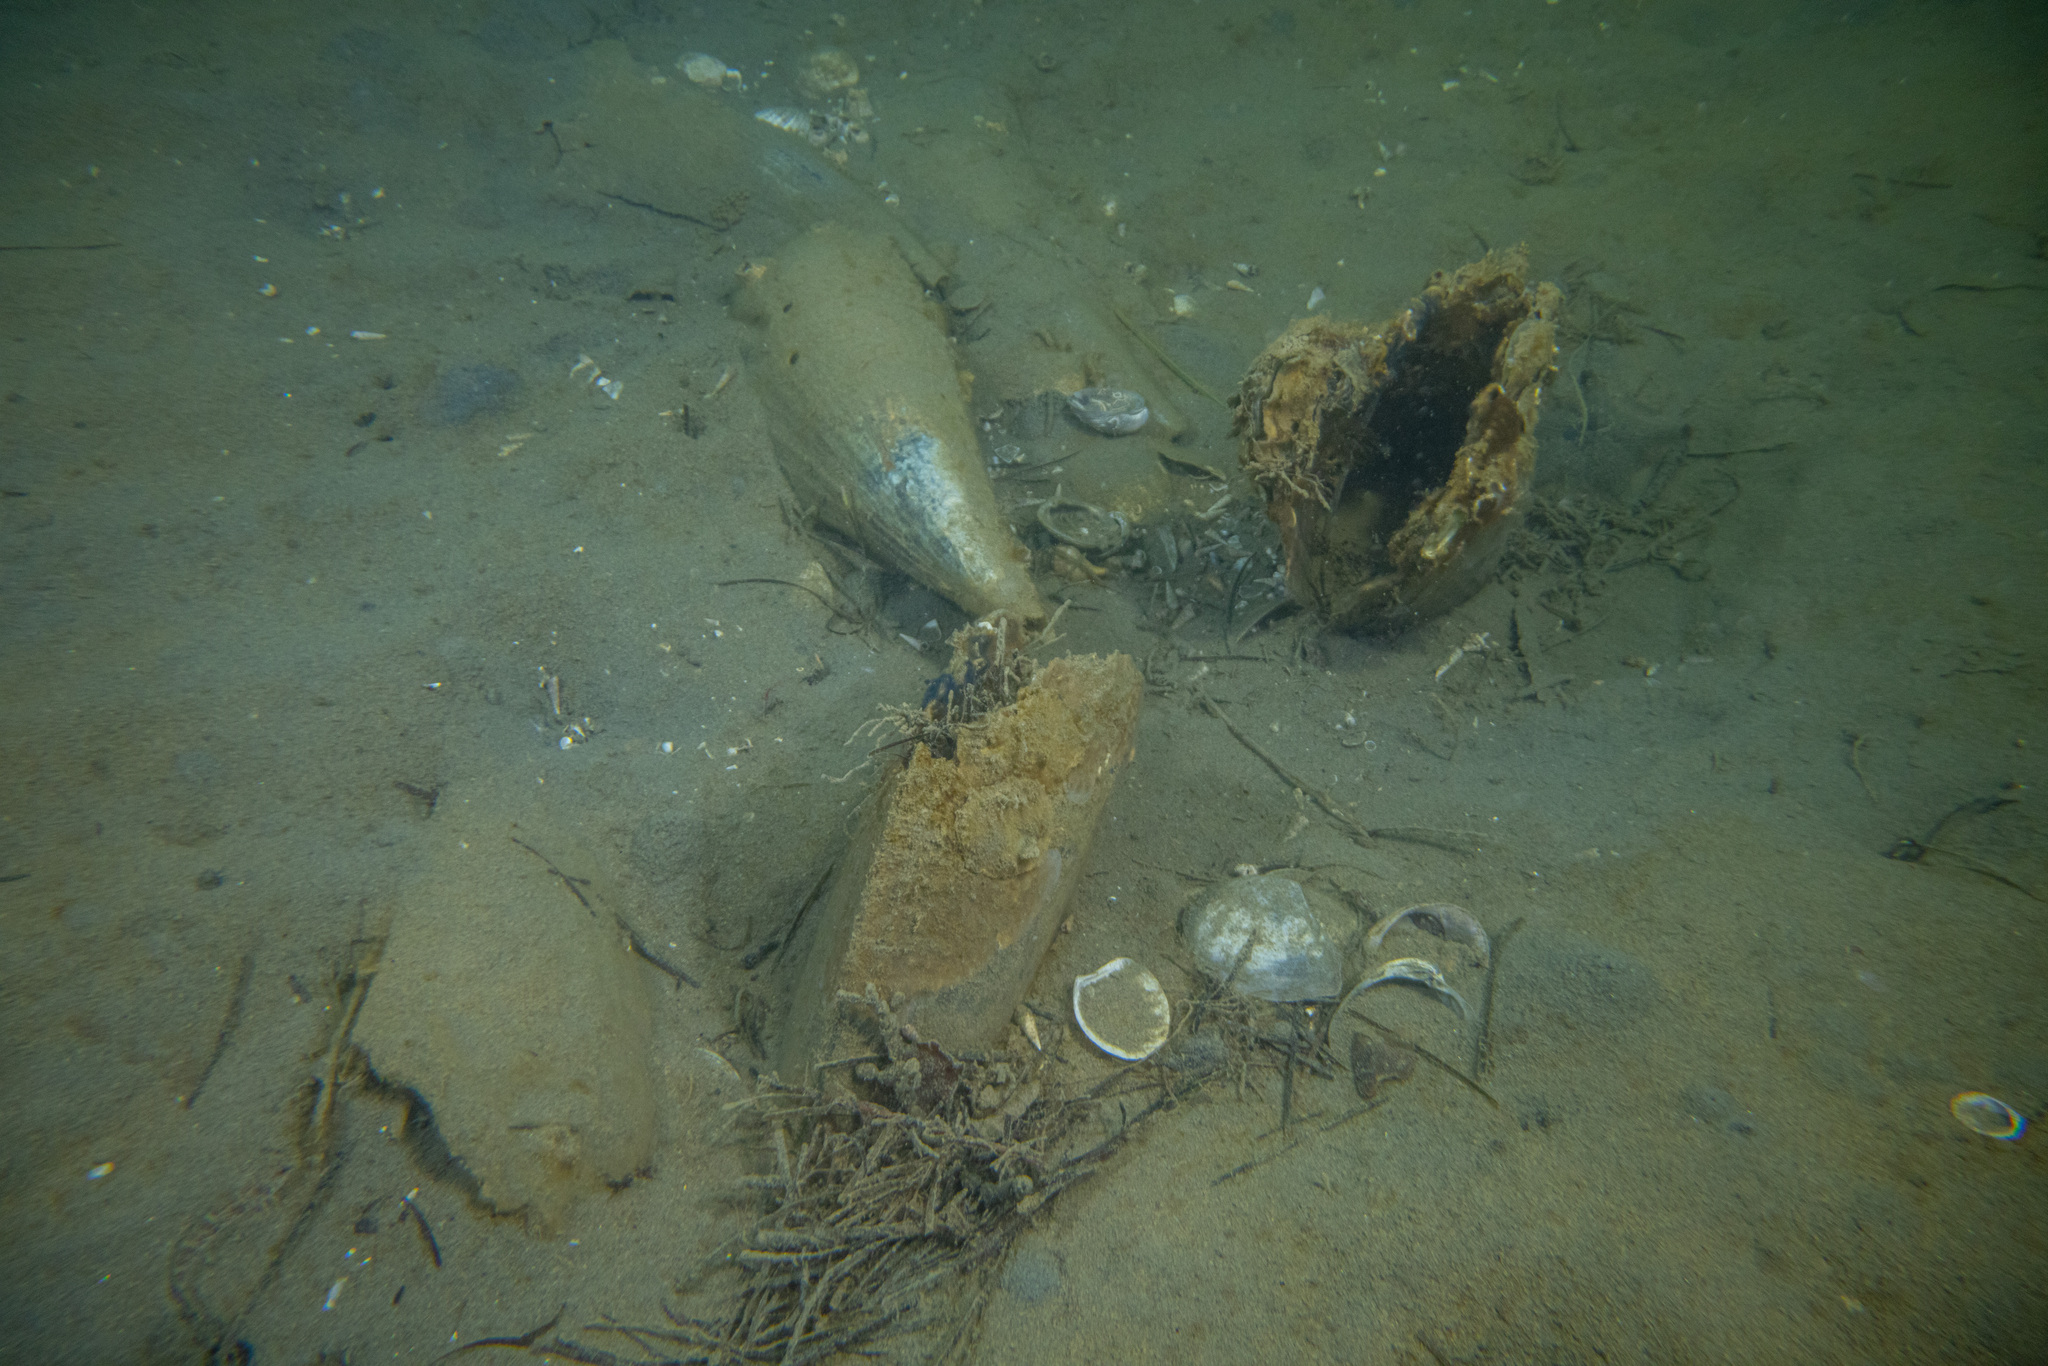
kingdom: Animalia
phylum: Mollusca
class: Bivalvia
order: Ostreida
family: Pinnidae
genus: Atrina
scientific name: Atrina zelandica
